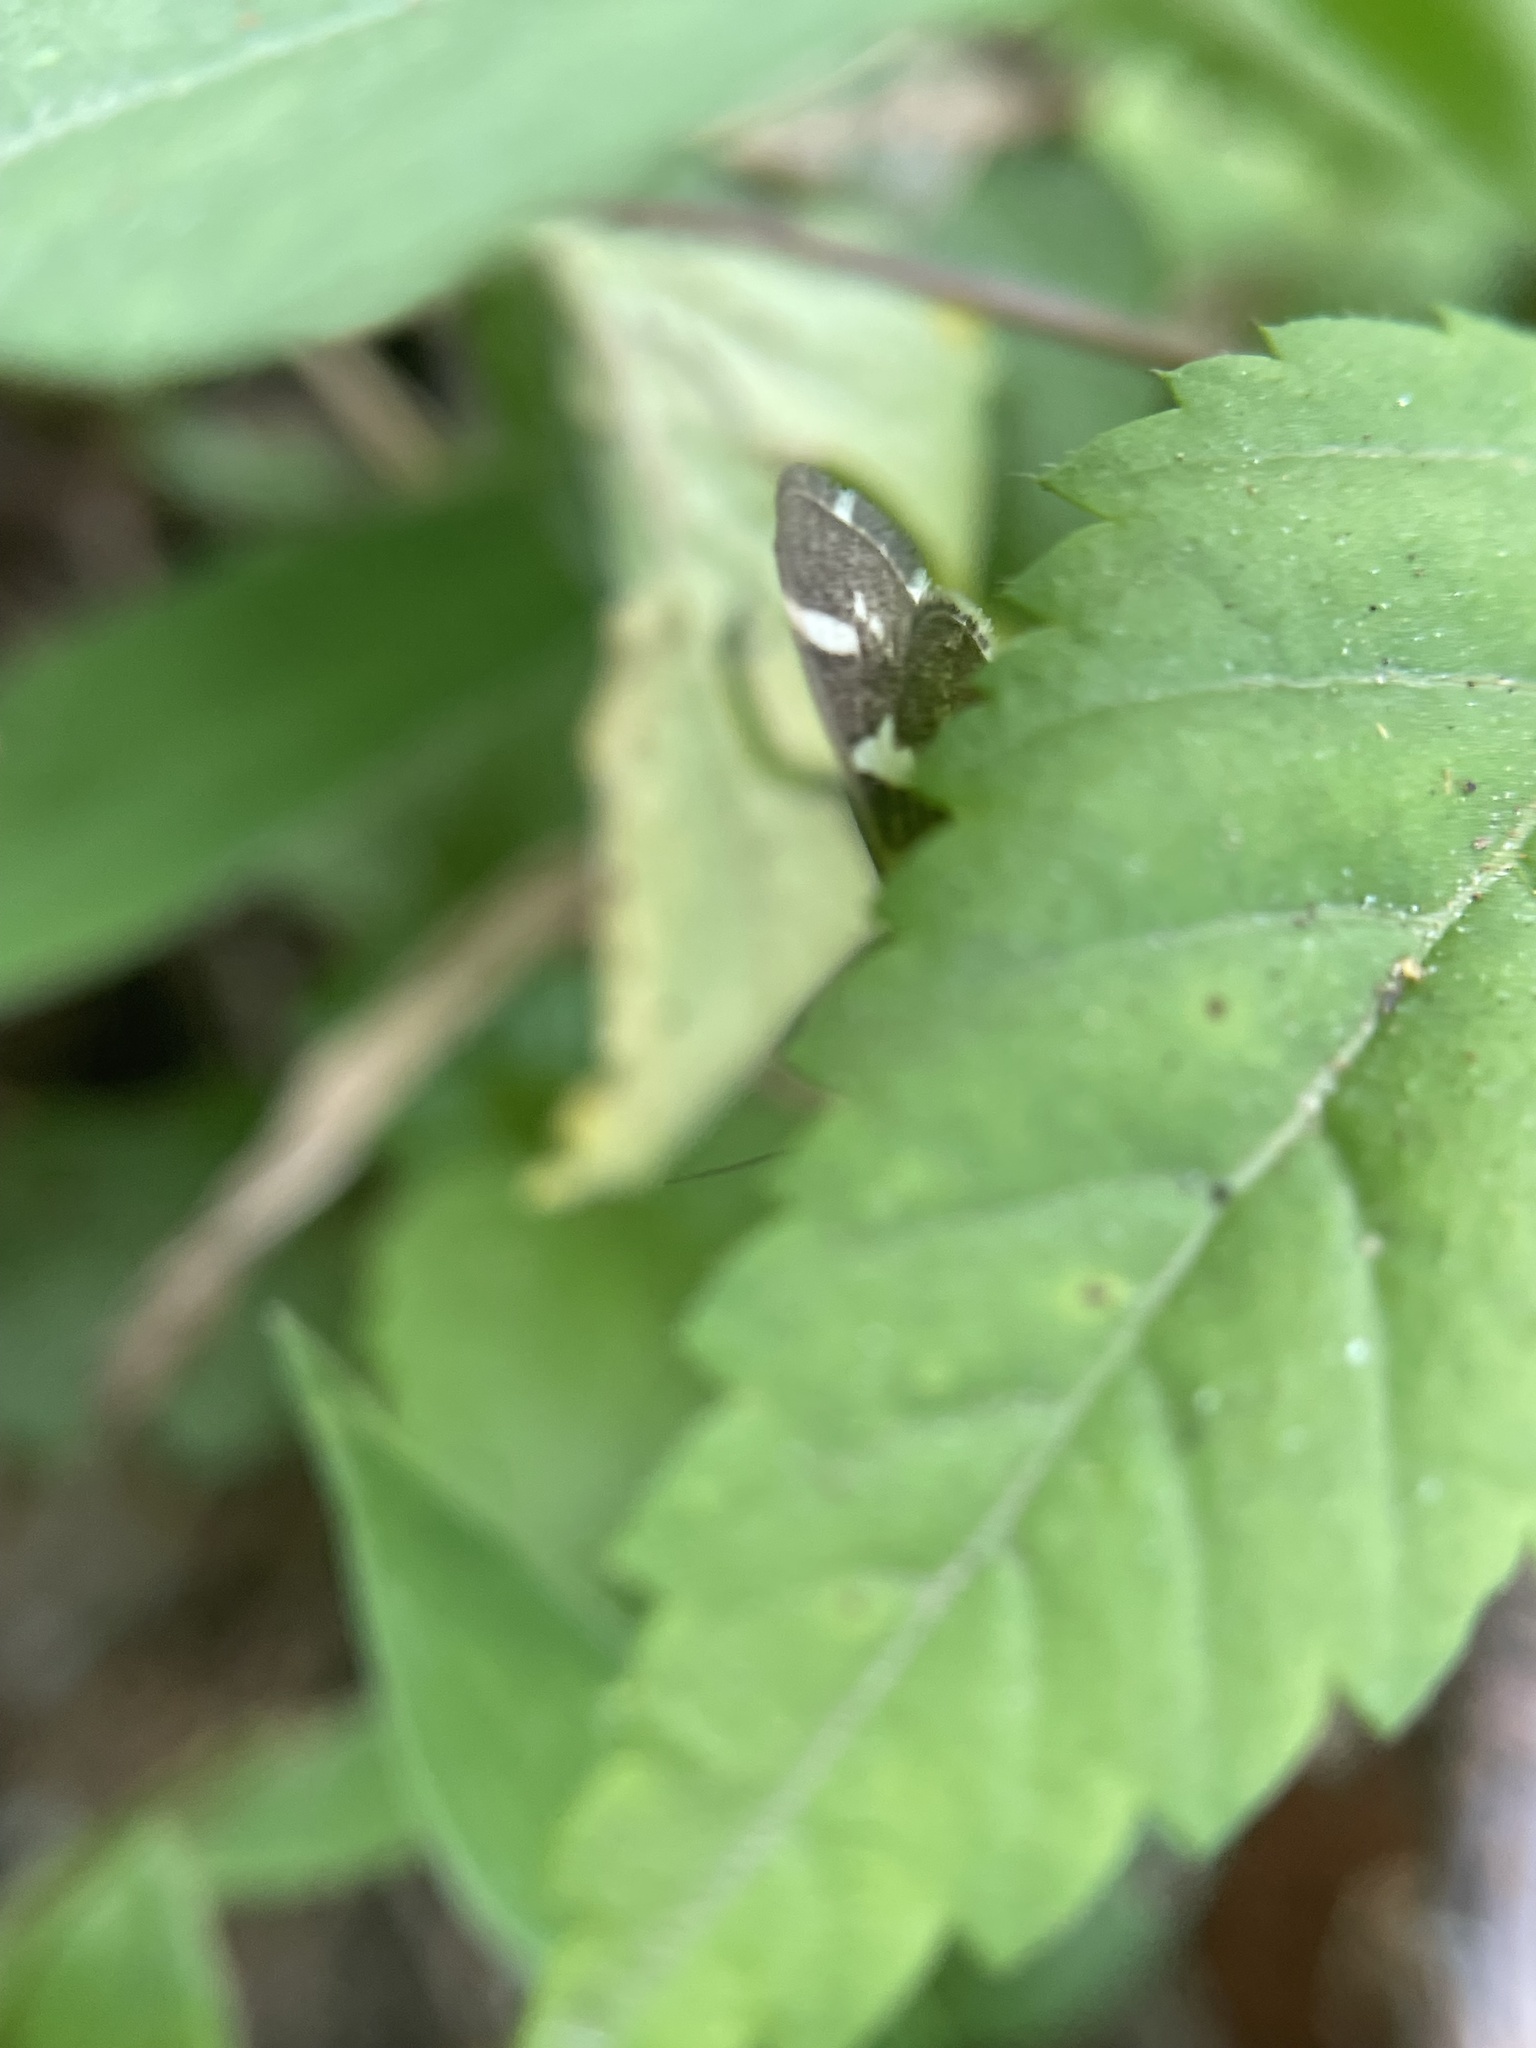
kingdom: Animalia
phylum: Arthropoda
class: Insecta
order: Lepidoptera
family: Crambidae
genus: Spoladea
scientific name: Spoladea recurvalis
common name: Beet webworm moth
